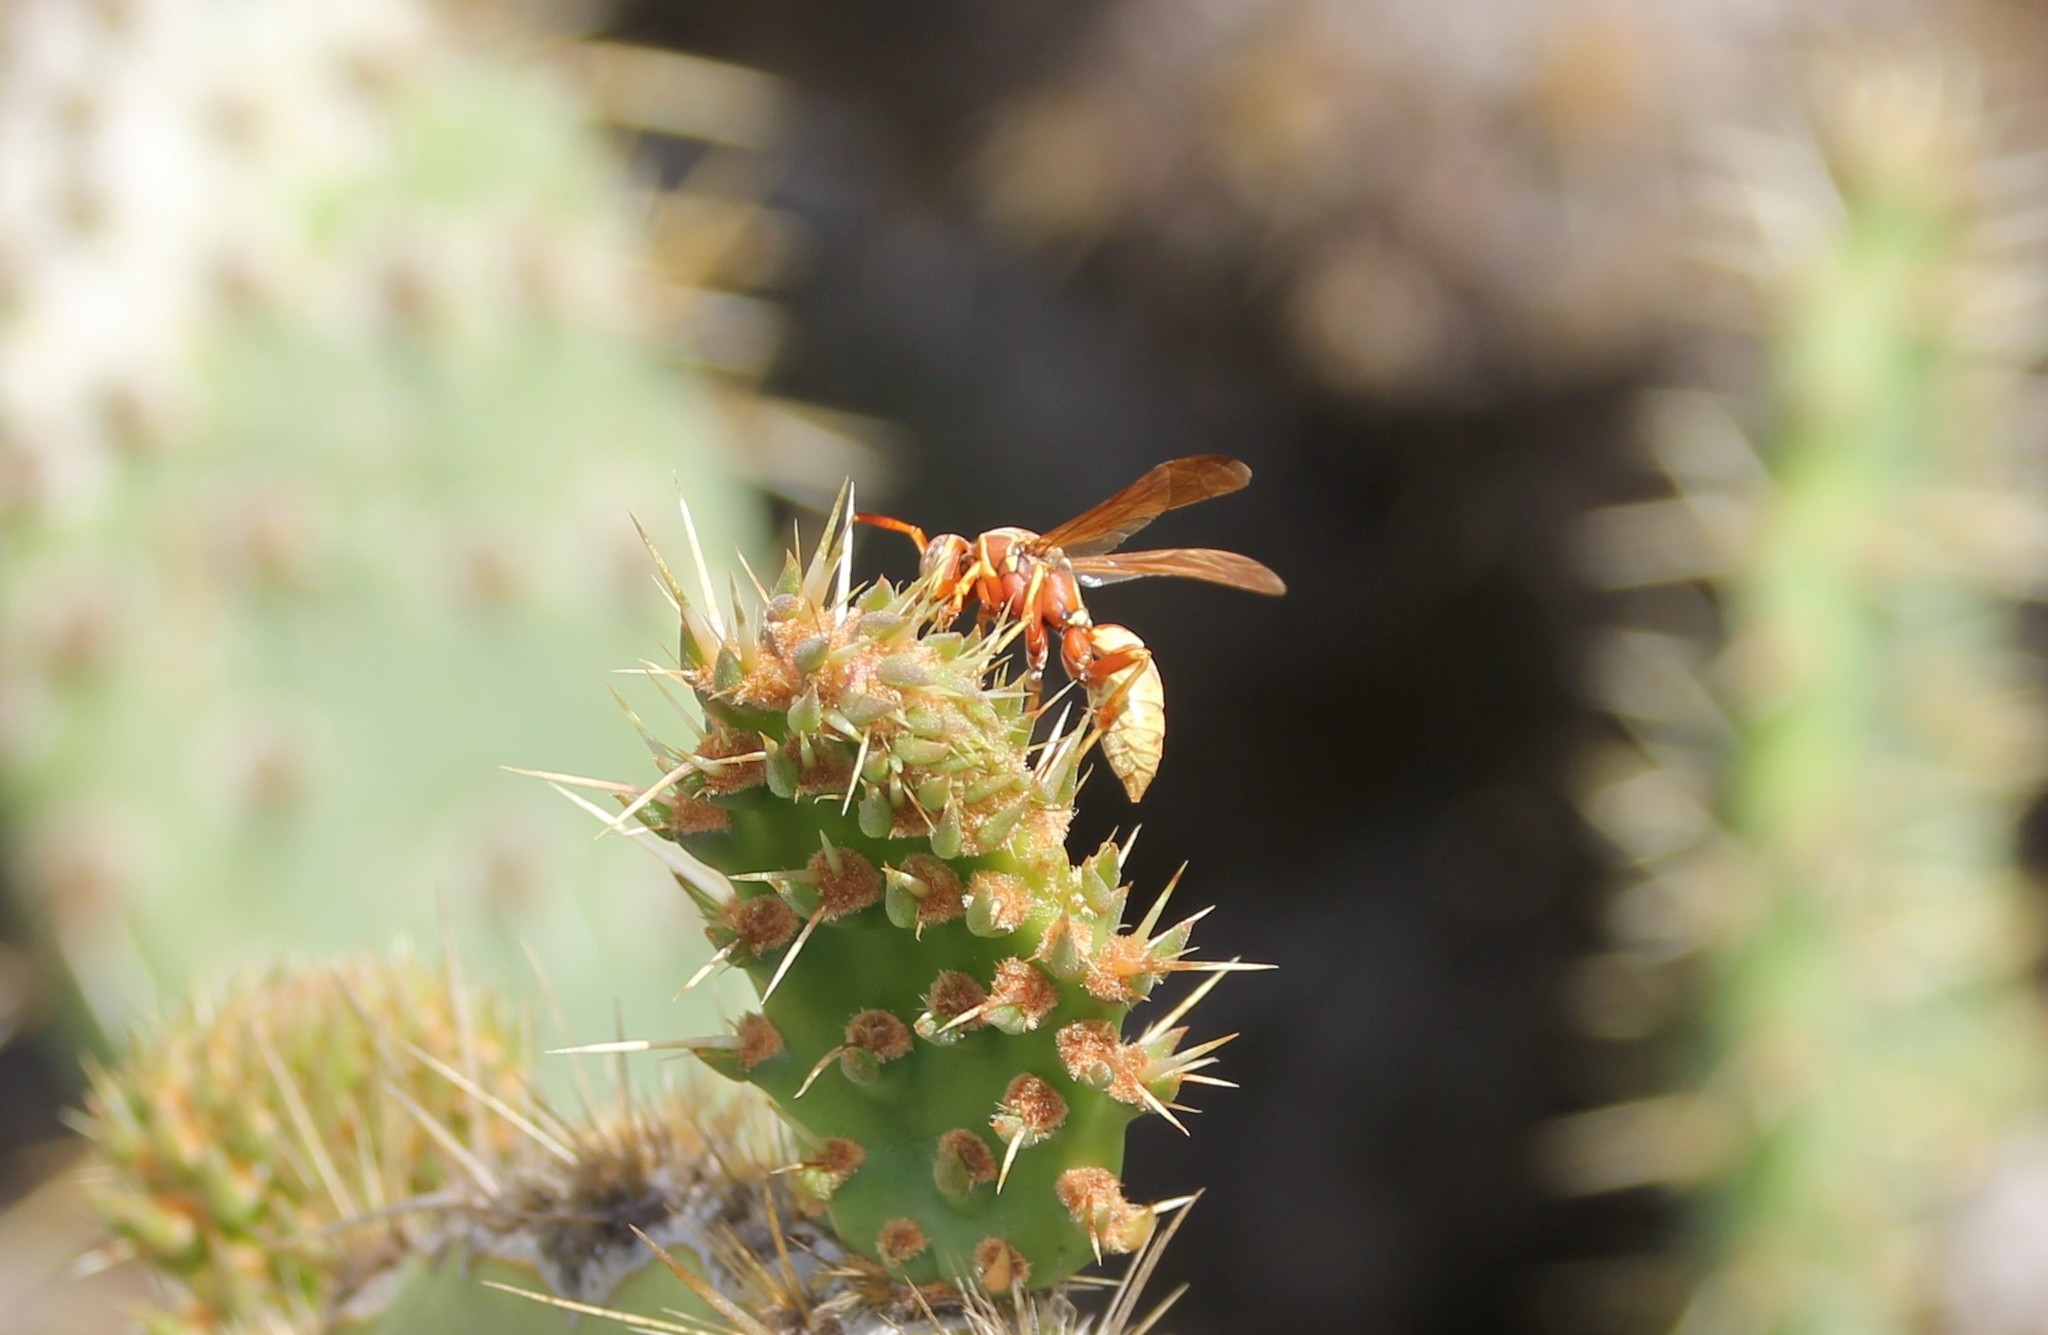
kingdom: Animalia
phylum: Arthropoda
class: Insecta
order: Hymenoptera
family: Eumenidae
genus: Polistes
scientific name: Polistes aurifer
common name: Paper wasp
